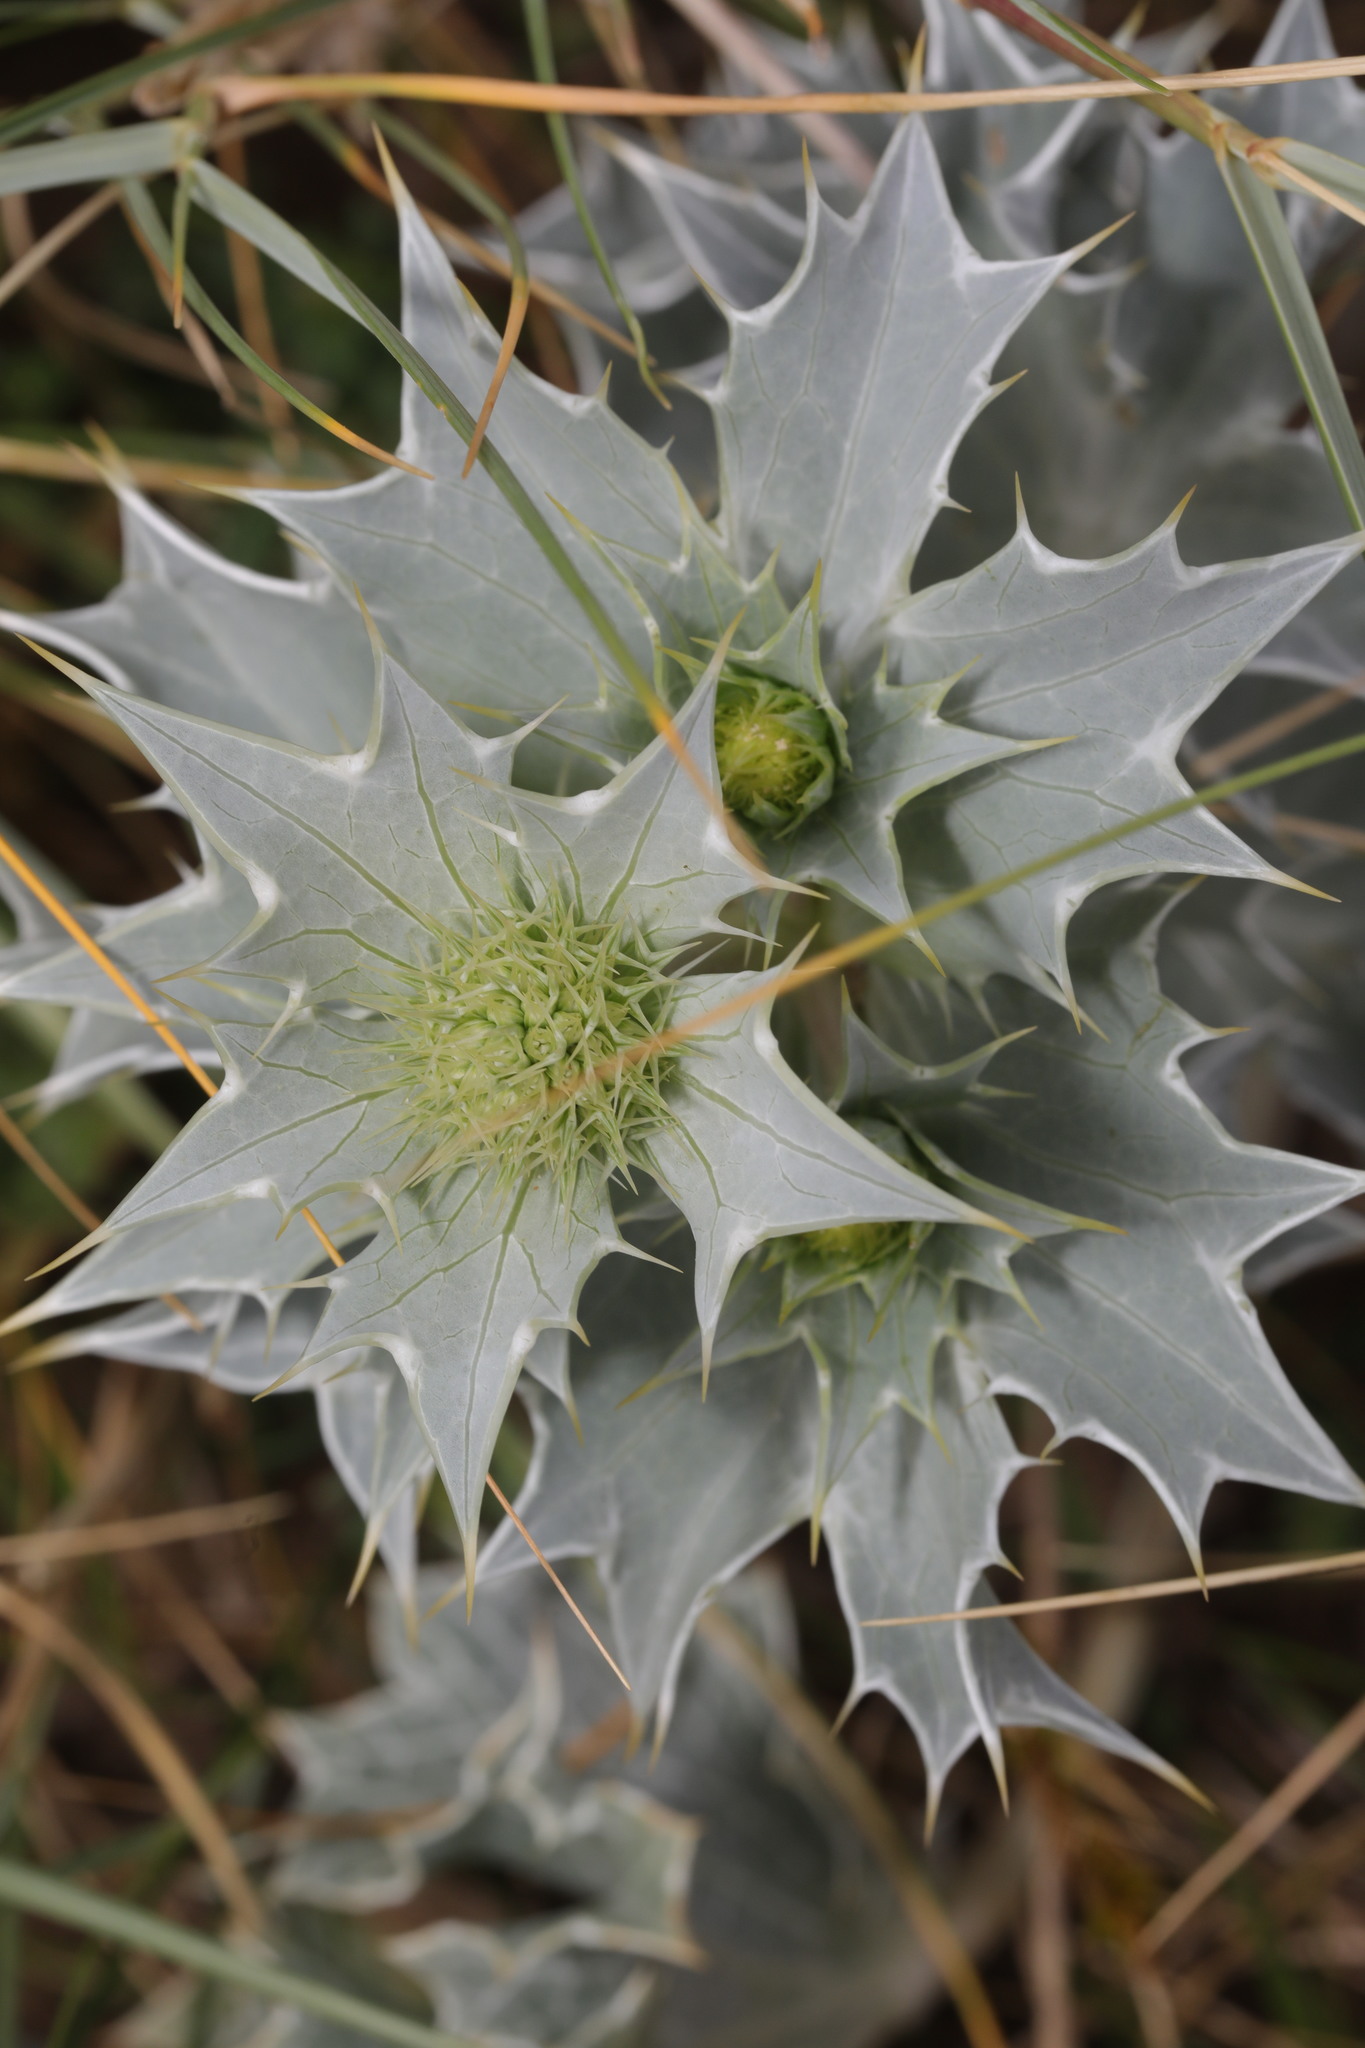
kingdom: Plantae
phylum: Tracheophyta
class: Magnoliopsida
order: Apiales
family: Apiaceae
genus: Eryngium
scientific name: Eryngium maritimum
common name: Sea-holly
